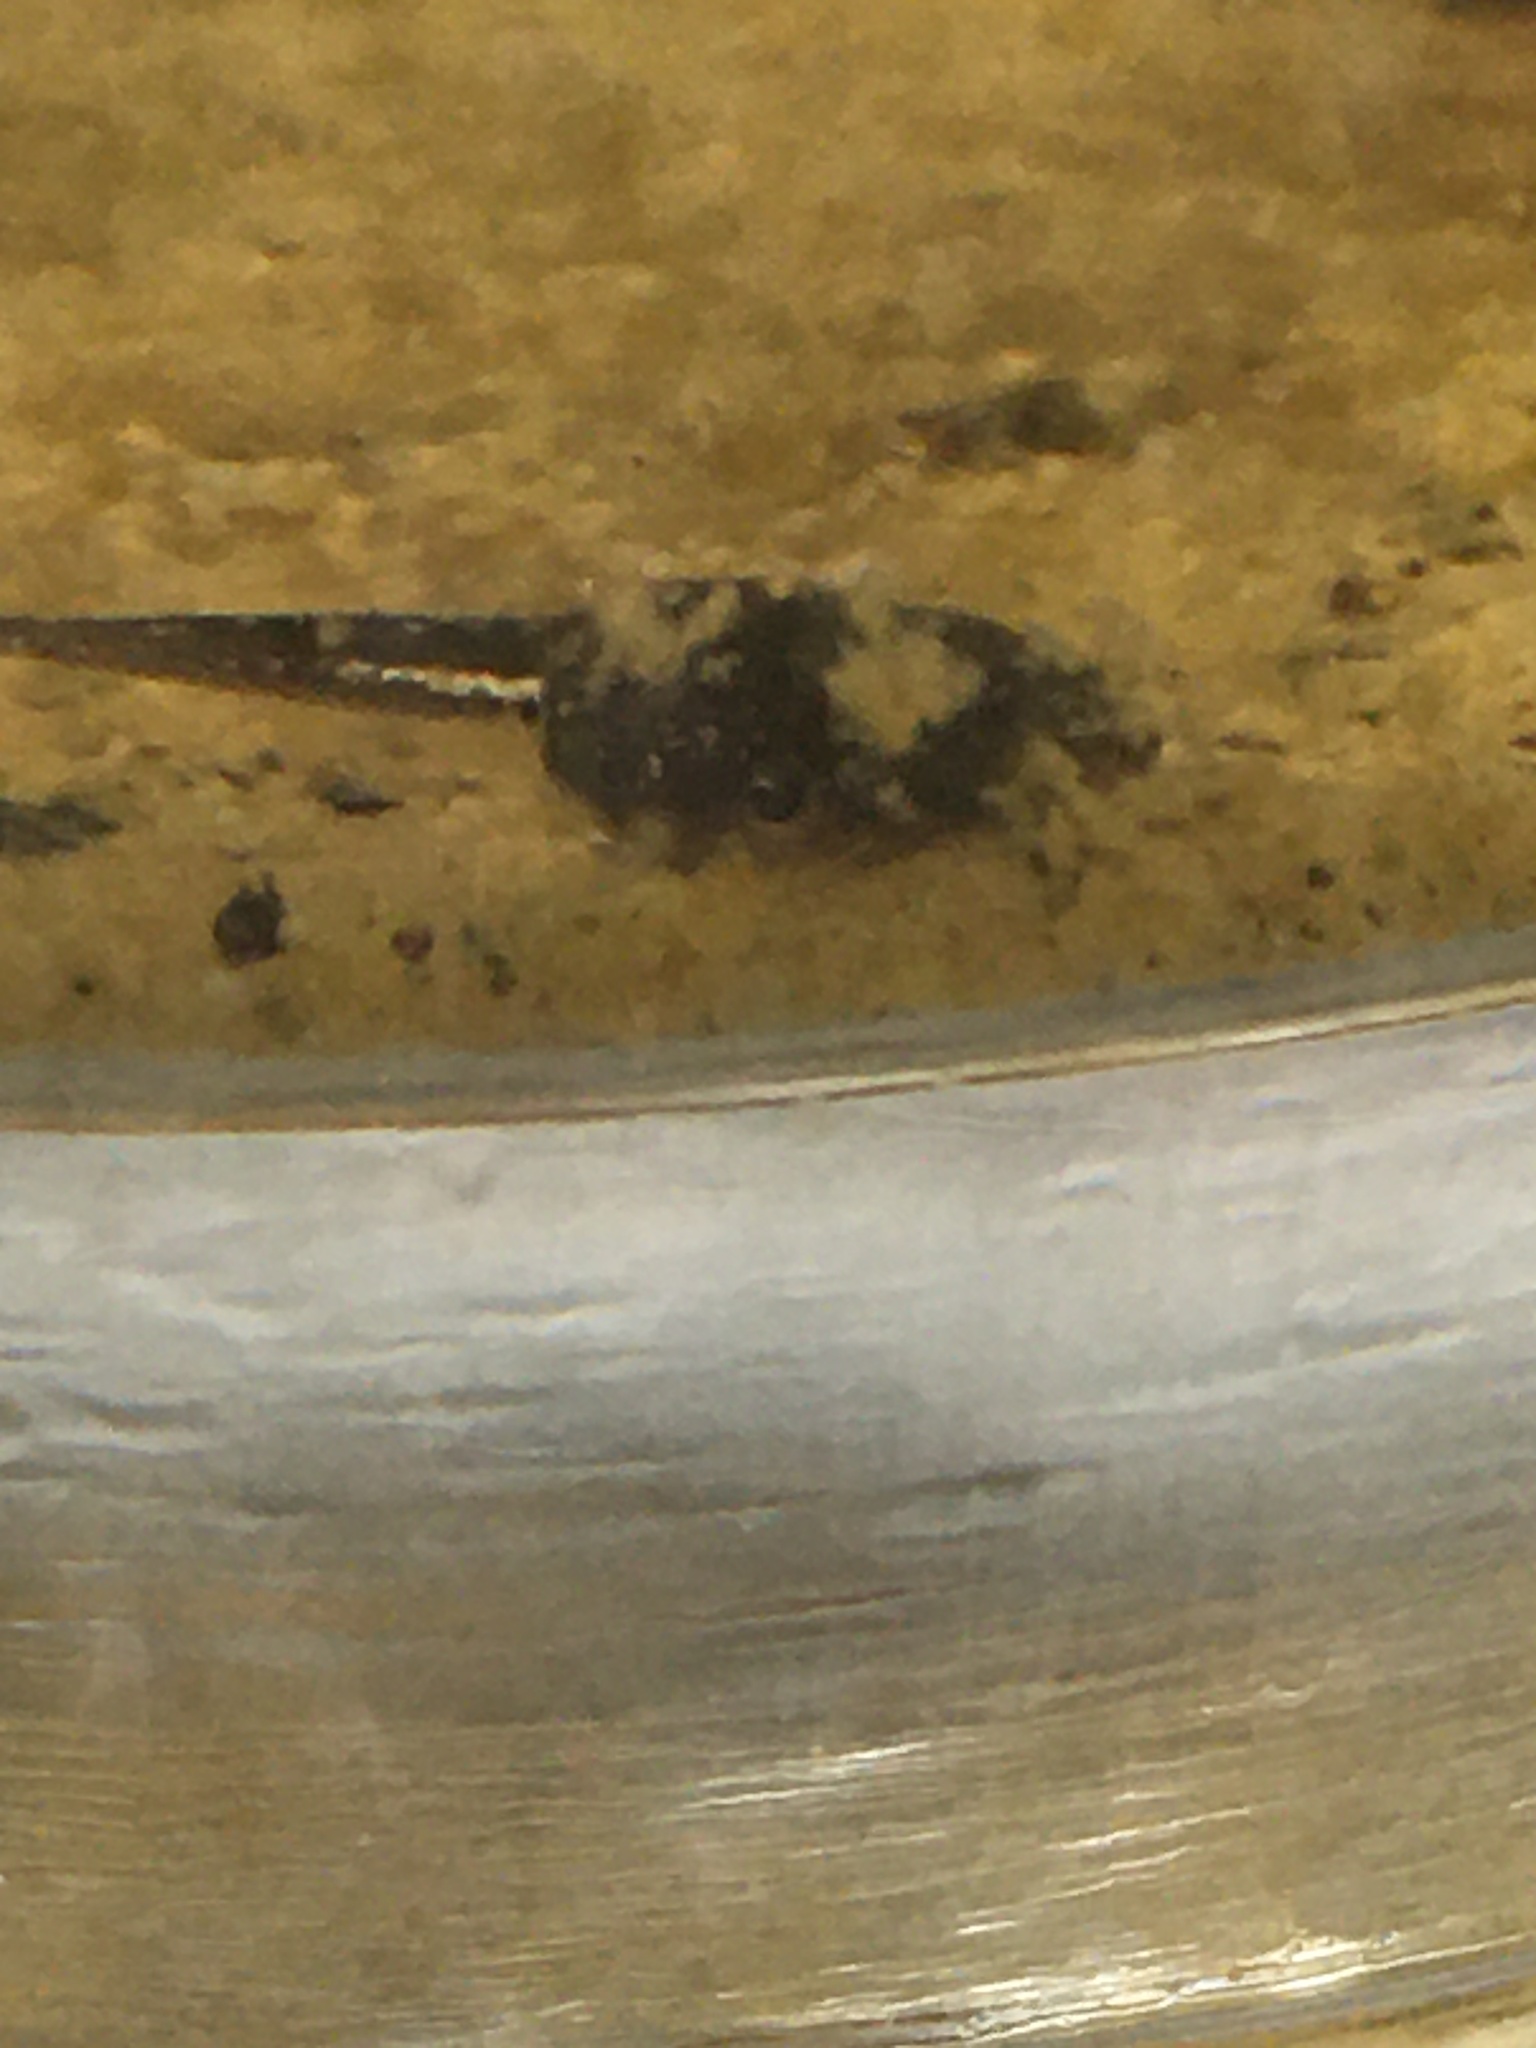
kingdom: Animalia
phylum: Chordata
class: Amphibia
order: Anura
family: Microhylidae
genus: Gastrophryne
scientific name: Gastrophryne carolinensis
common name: Eastern narrowmouth toad
